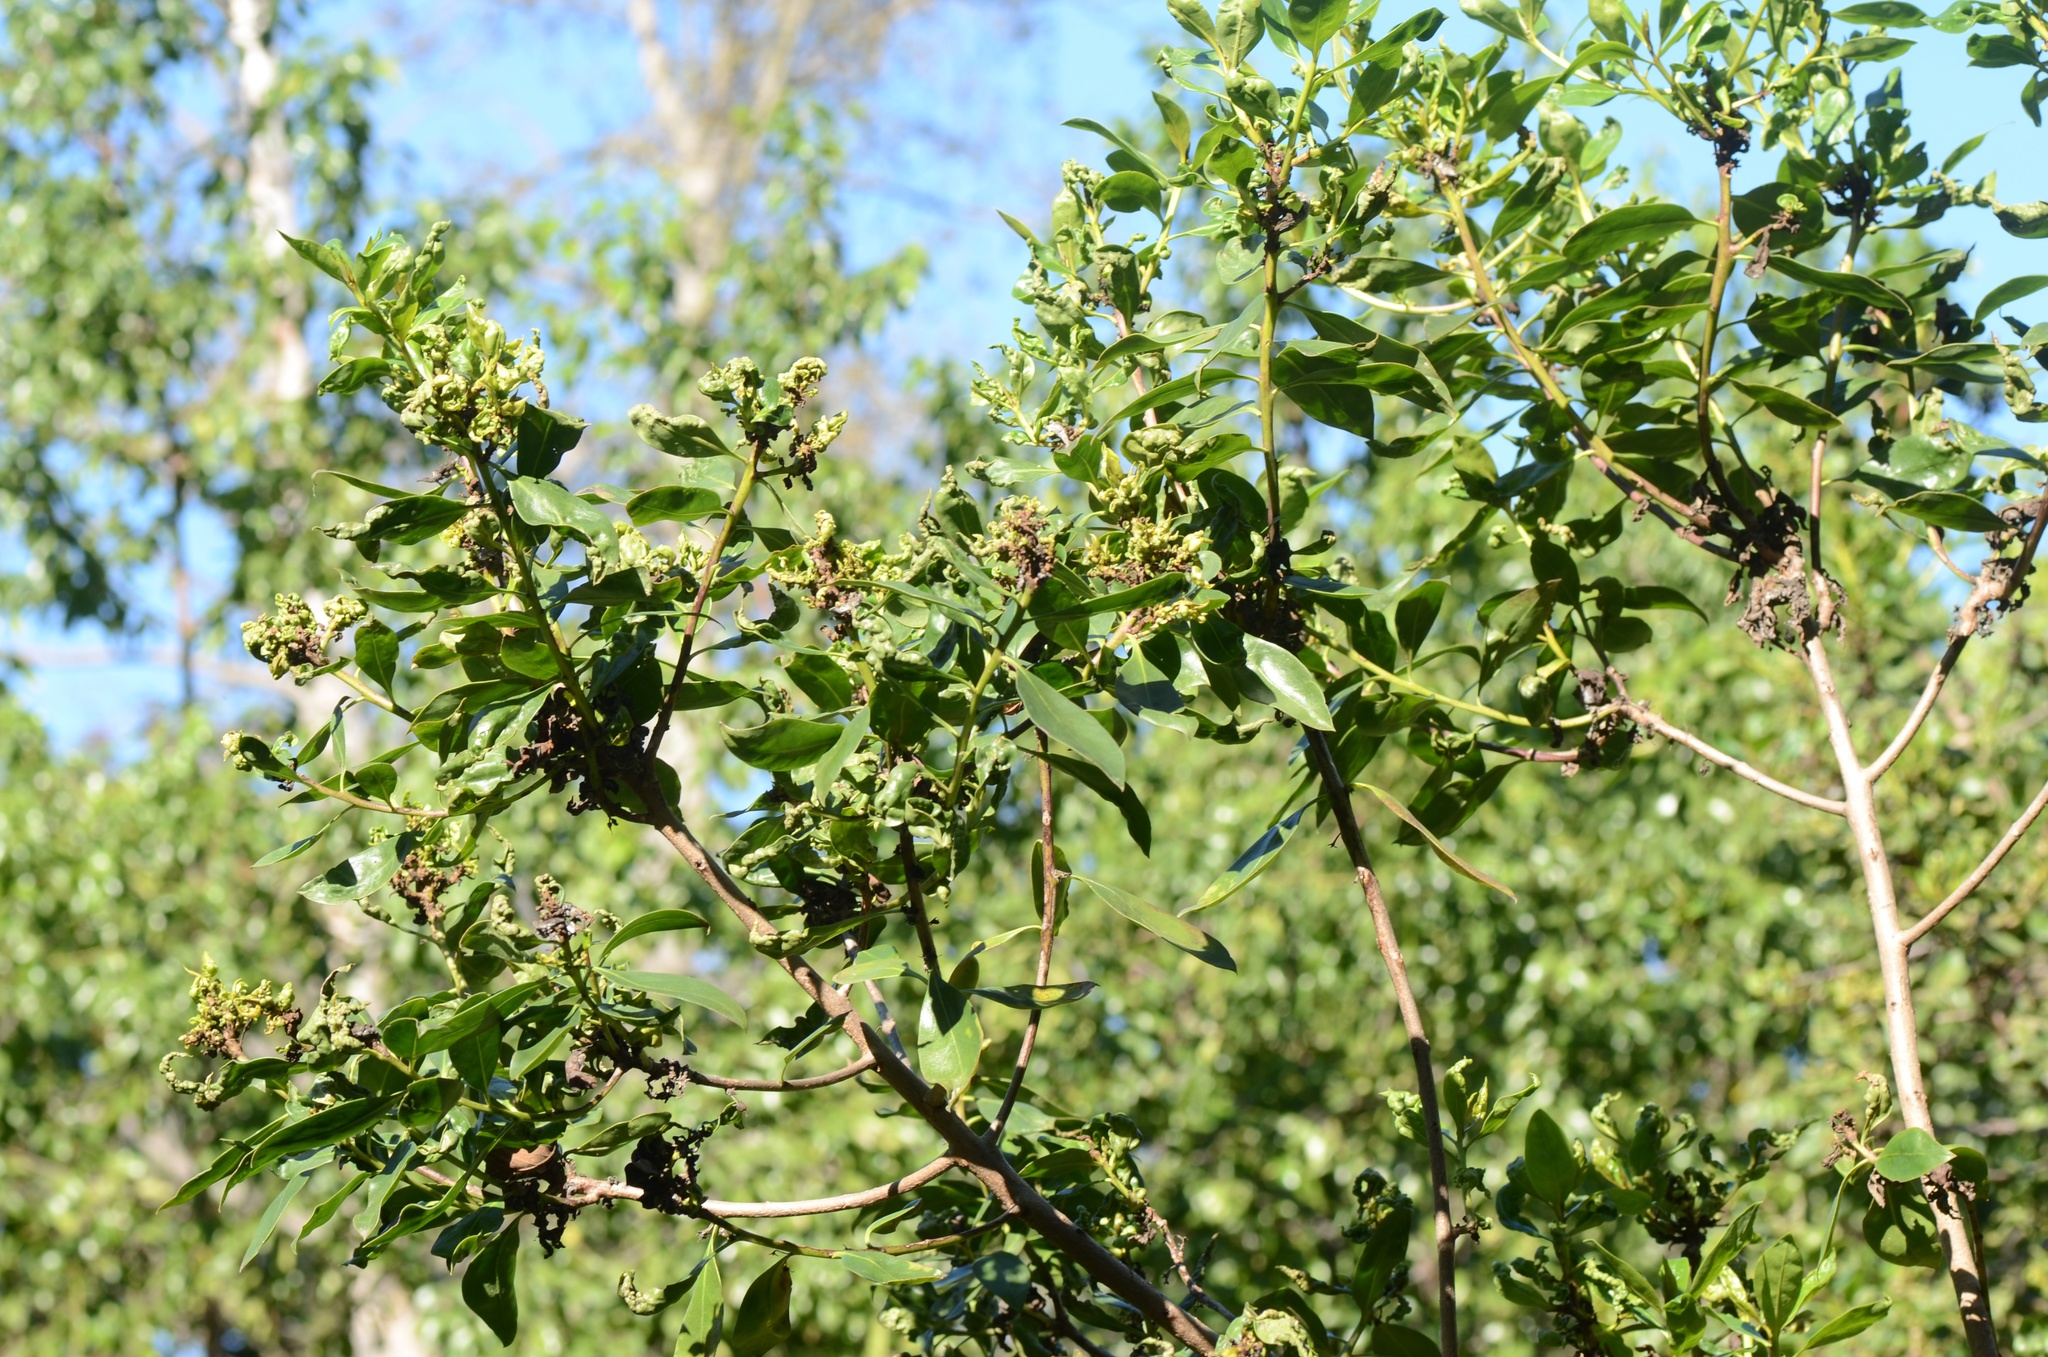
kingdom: Plantae
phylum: Tracheophyta
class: Magnoliopsida
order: Lamiales
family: Scrophulariaceae
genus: Myoporum
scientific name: Myoporum laetum
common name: Ngaio tree
